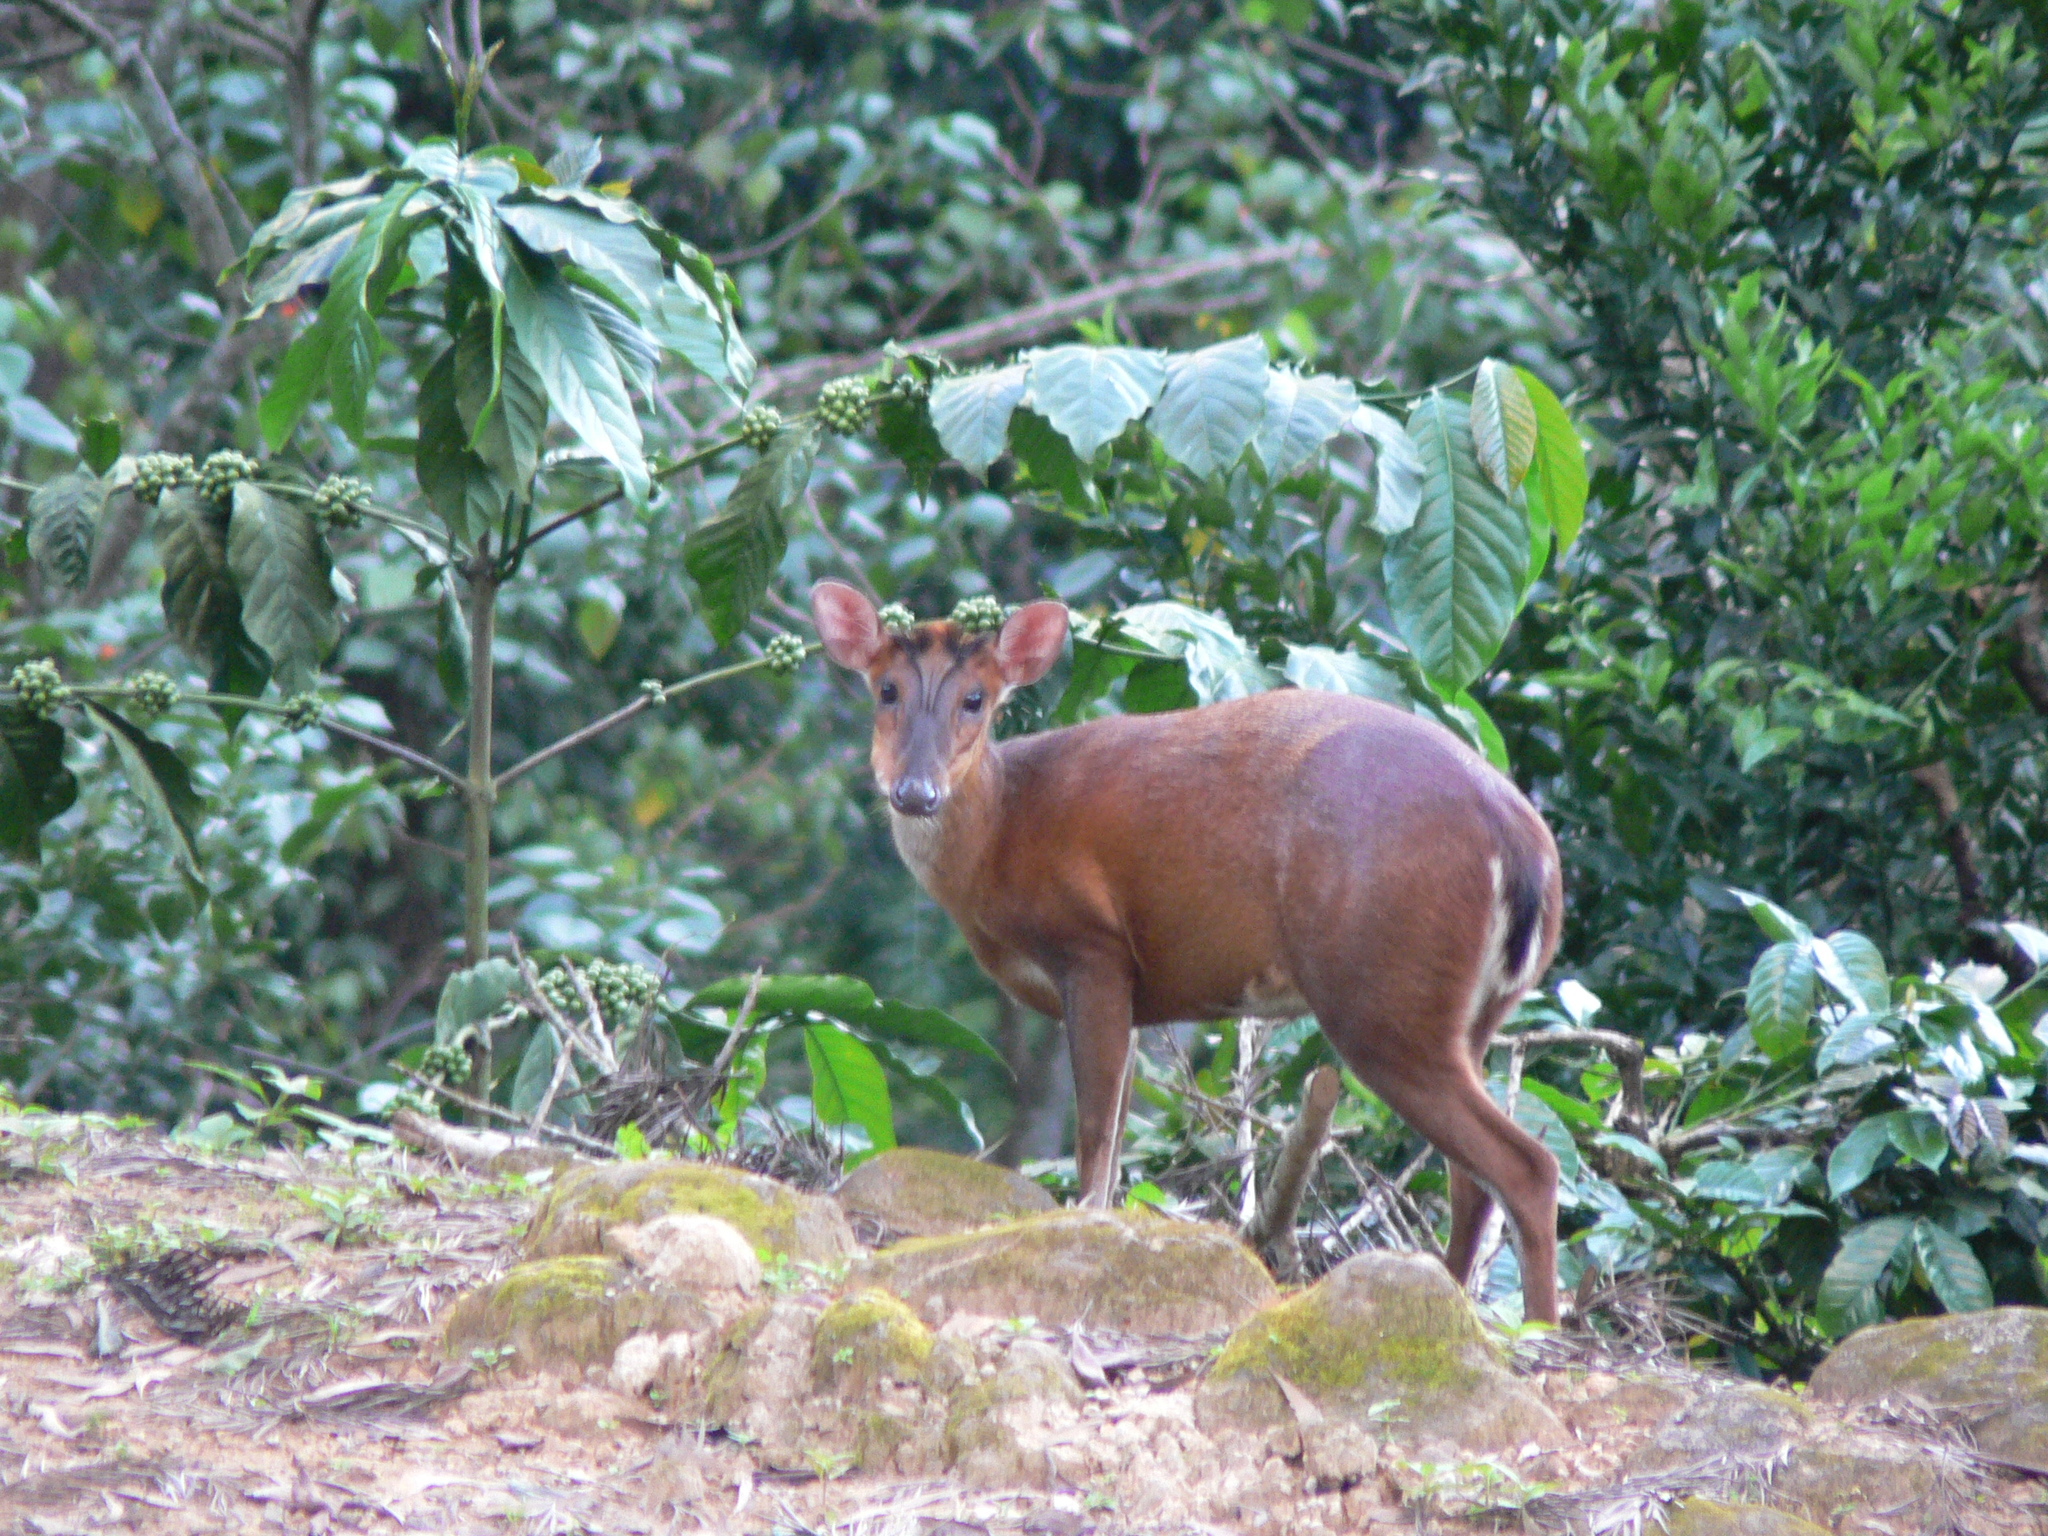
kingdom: Animalia
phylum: Chordata
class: Mammalia
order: Artiodactyla
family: Cervidae
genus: Muntiacus
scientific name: Muntiacus muntjak
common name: Indian muntjac
